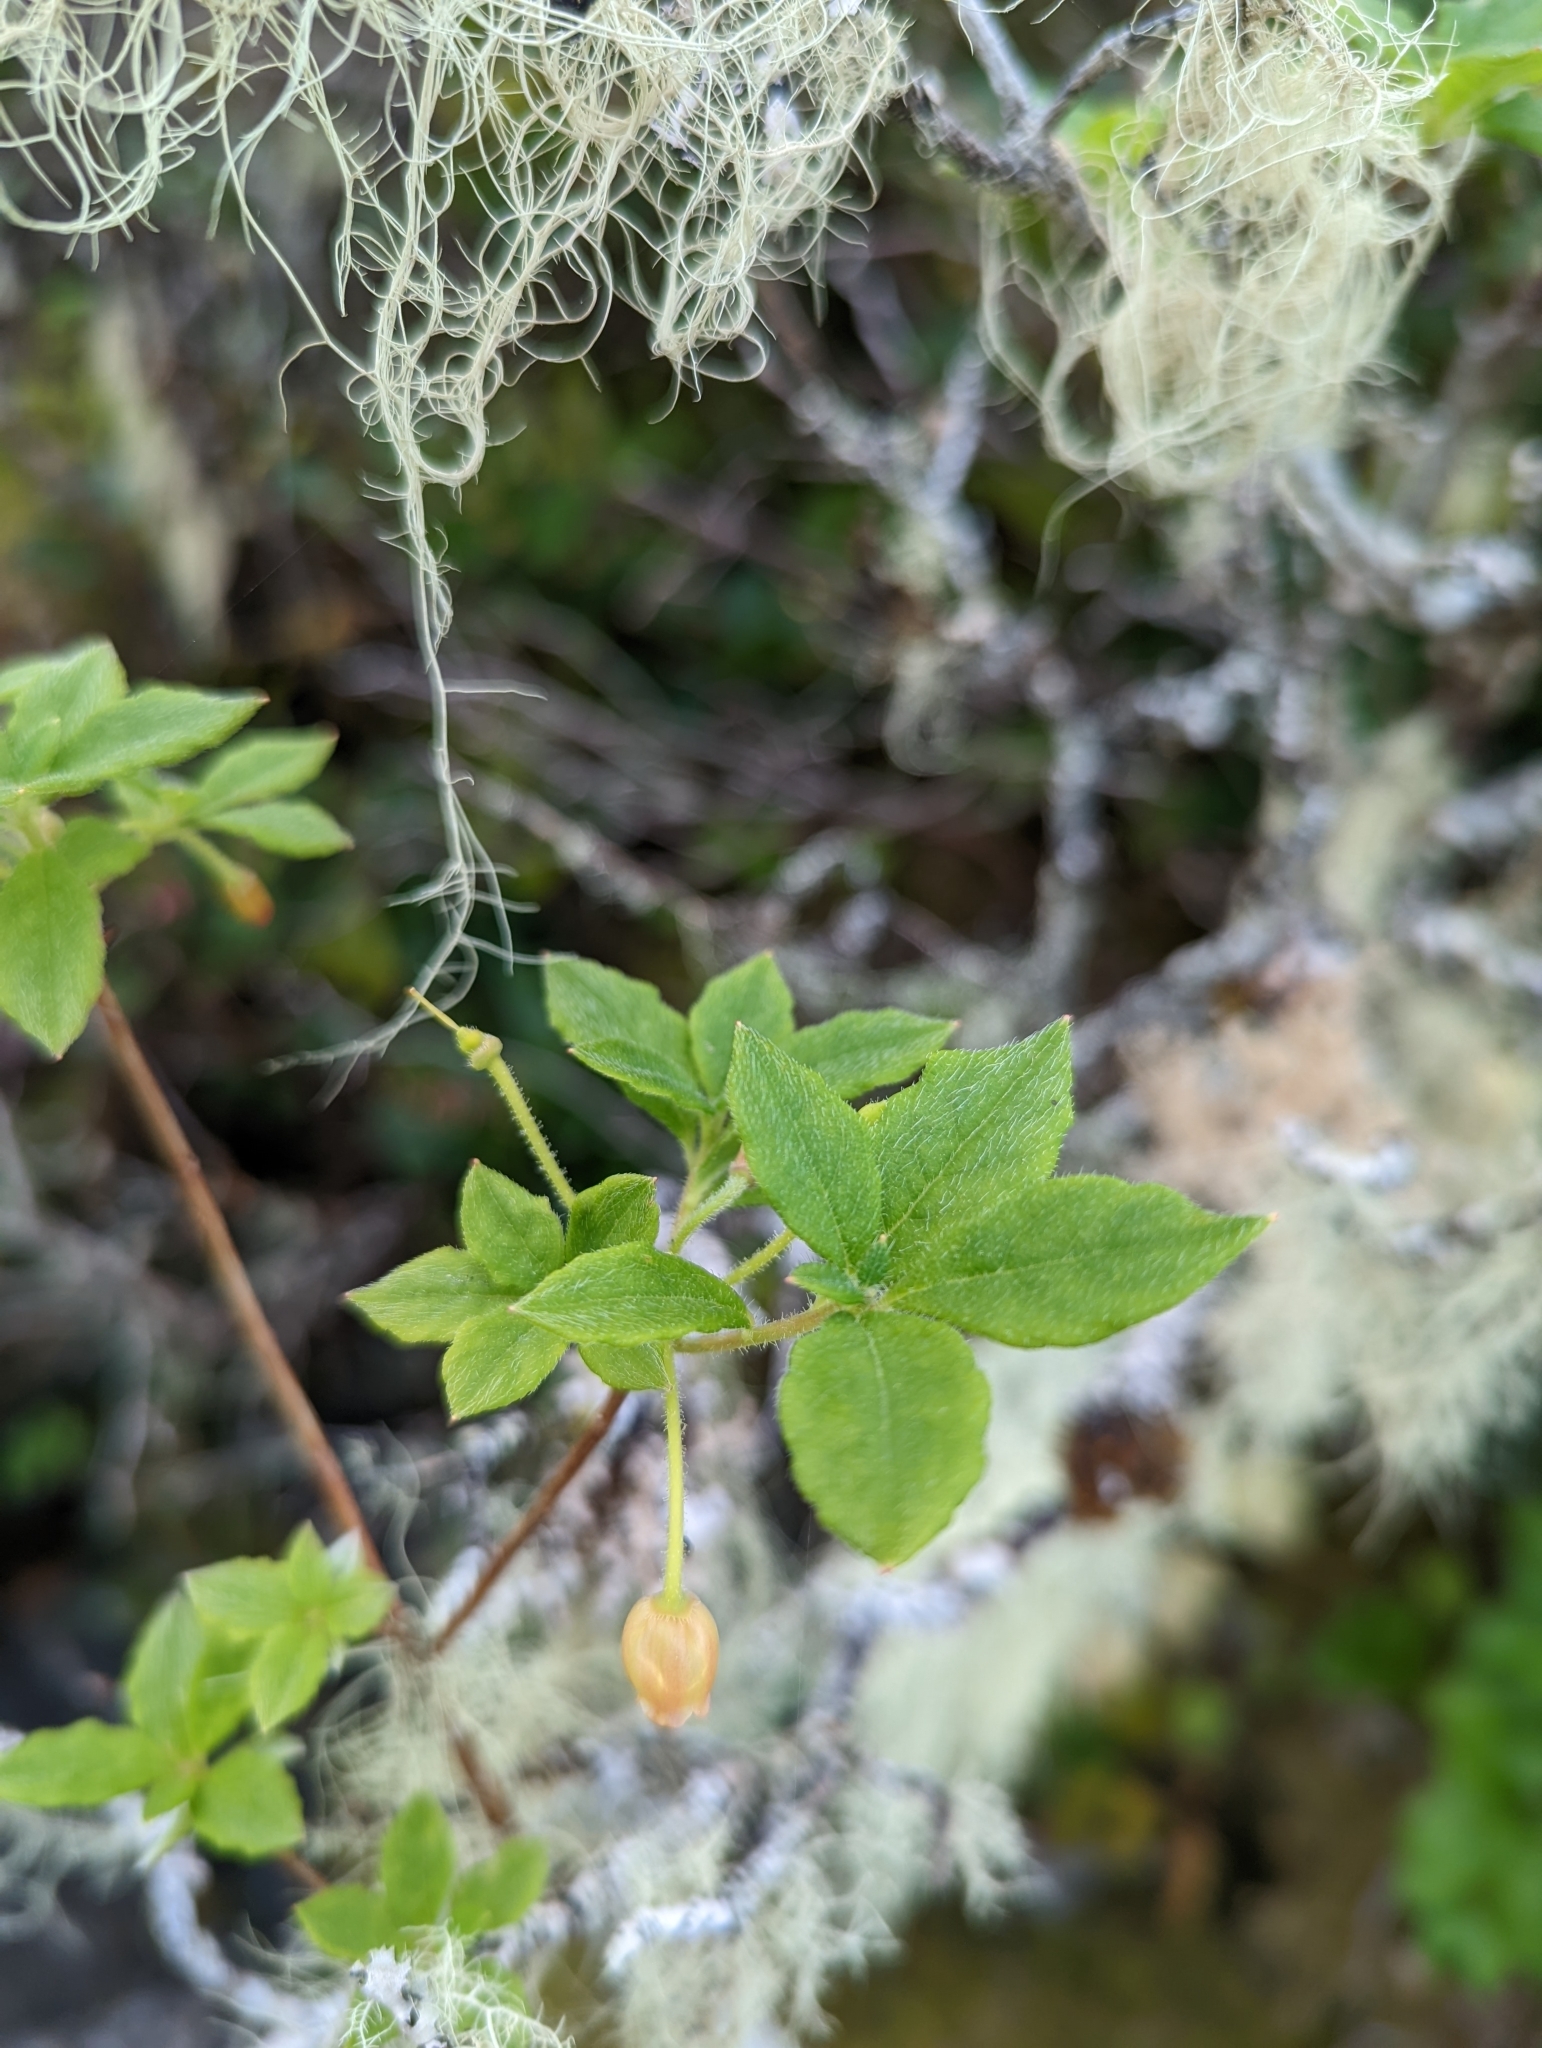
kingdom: Plantae
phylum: Tracheophyta
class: Magnoliopsida
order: Ericales
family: Ericaceae
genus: Rhododendron
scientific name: Rhododendron menziesii
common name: Pacific menziesia
